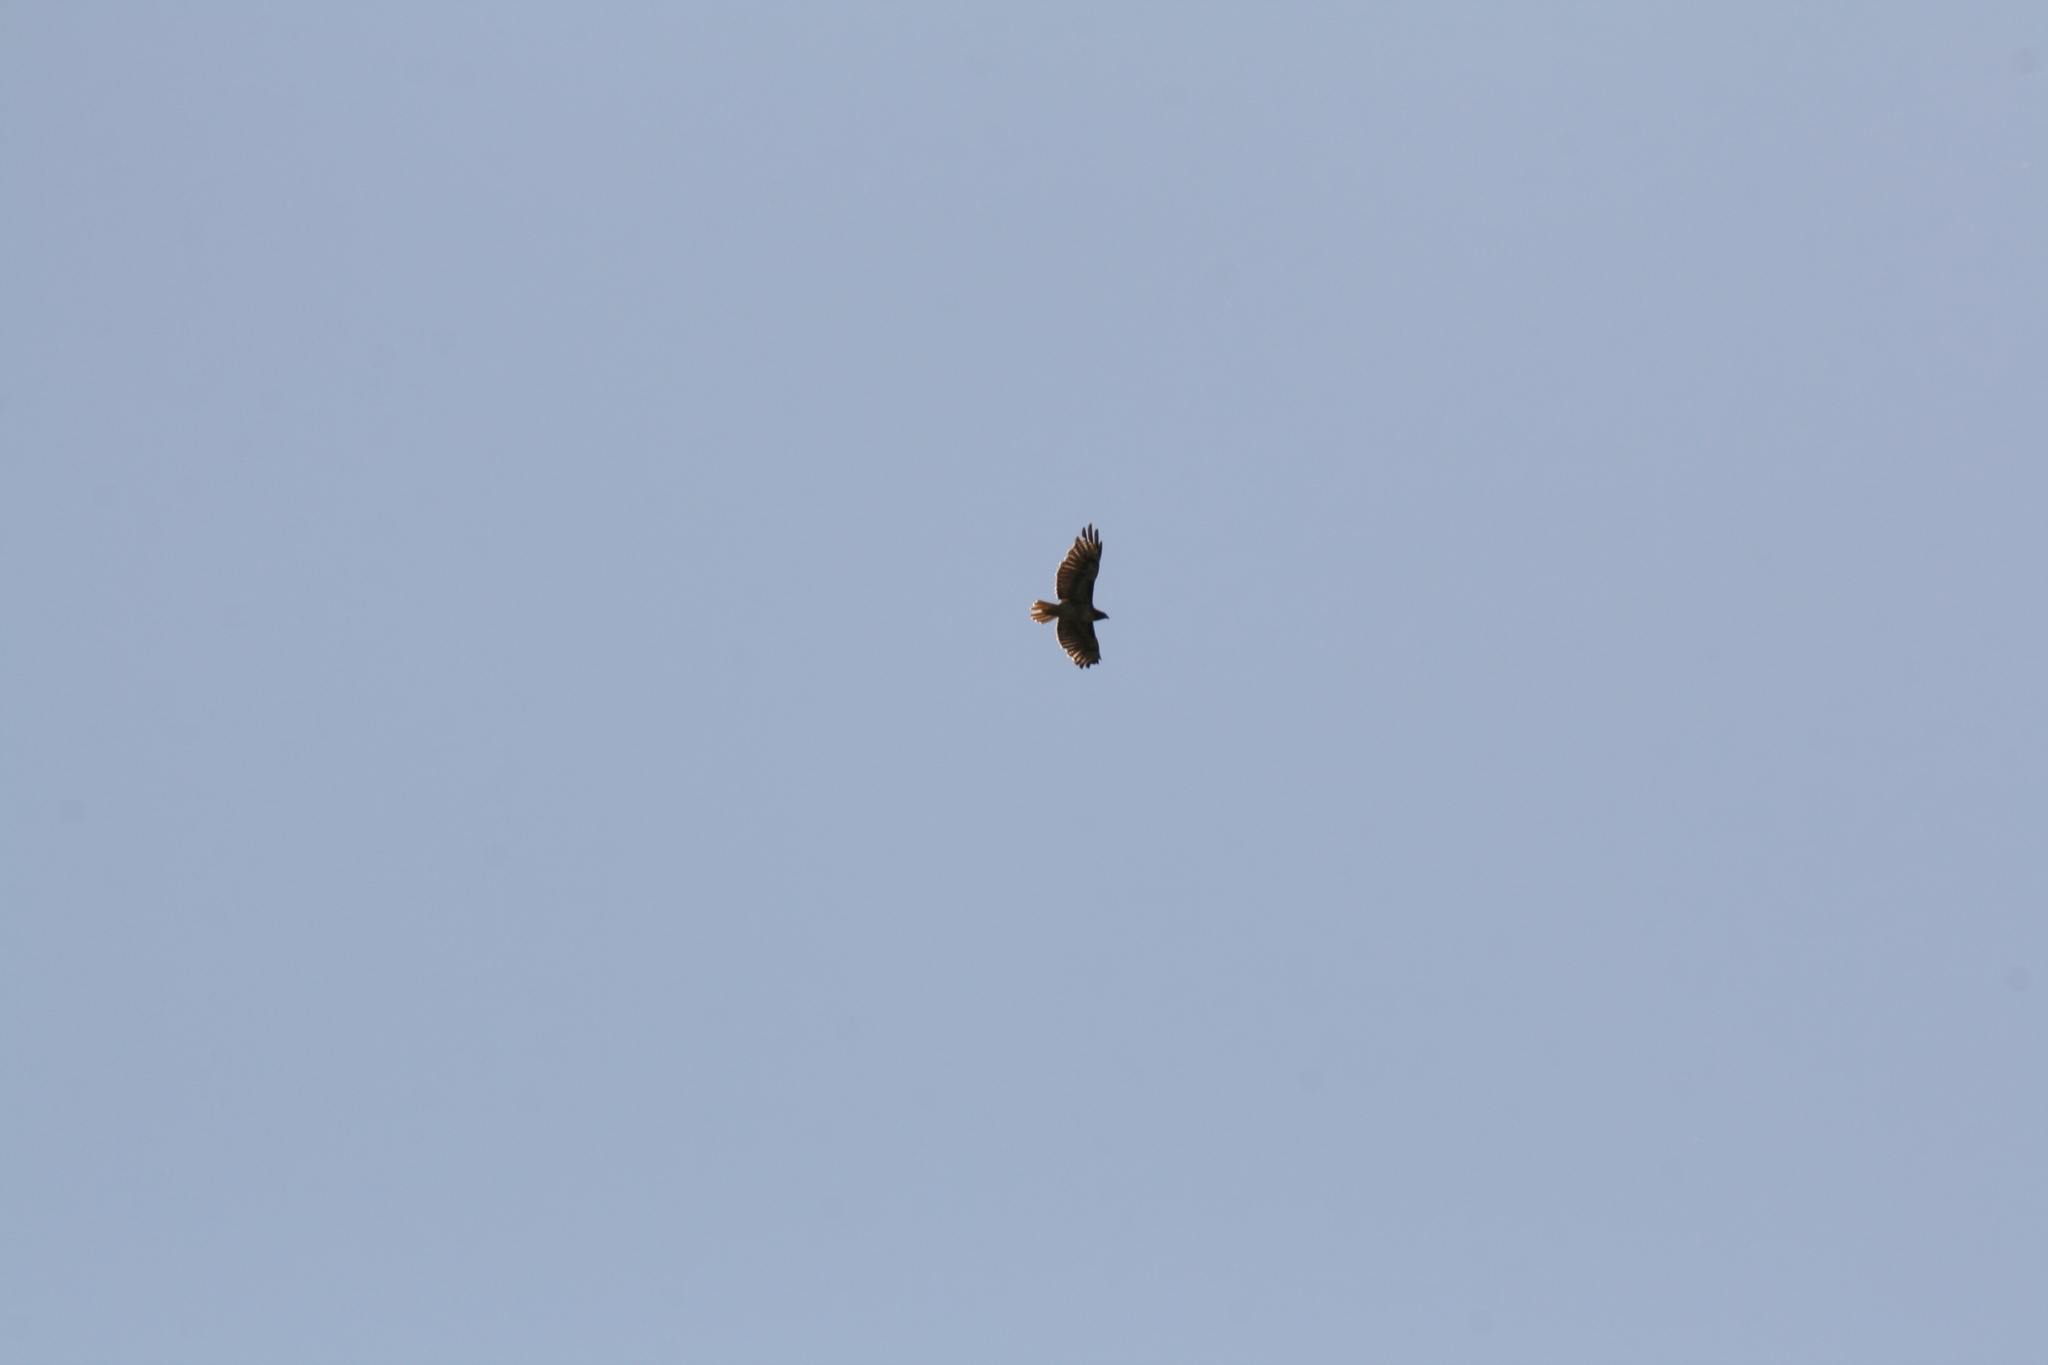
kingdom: Animalia
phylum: Chordata
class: Aves
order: Accipitriformes
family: Accipitridae
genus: Buteo
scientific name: Buteo jamaicensis
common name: Red-tailed hawk
